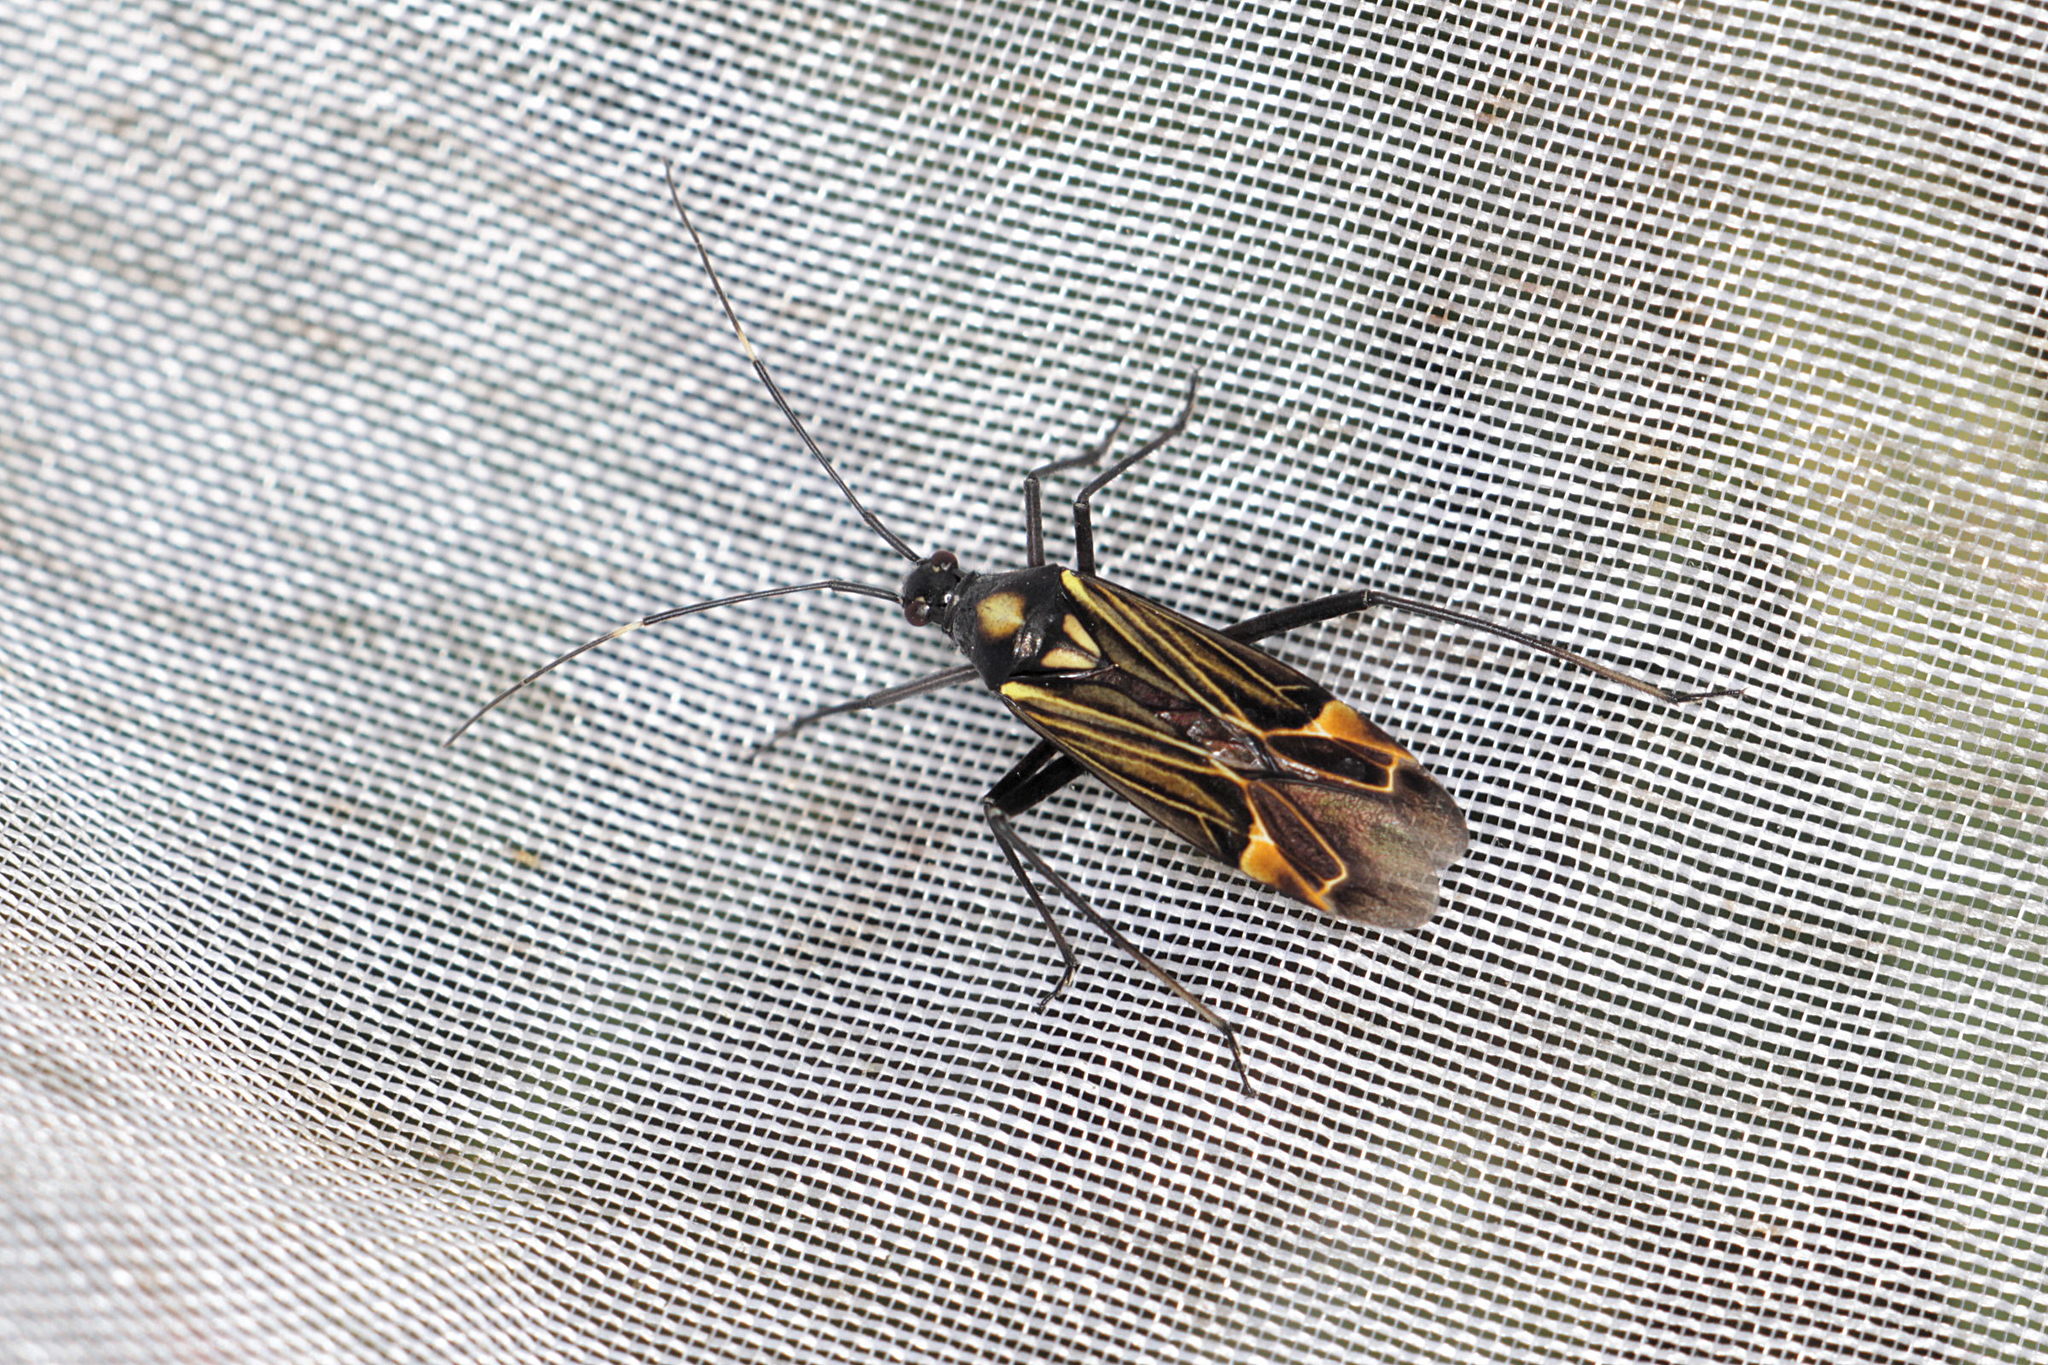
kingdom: Animalia
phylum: Arthropoda
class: Insecta
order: Hemiptera
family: Miridae
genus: Miris
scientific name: Miris striatus
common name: Fine streaked bugkin
